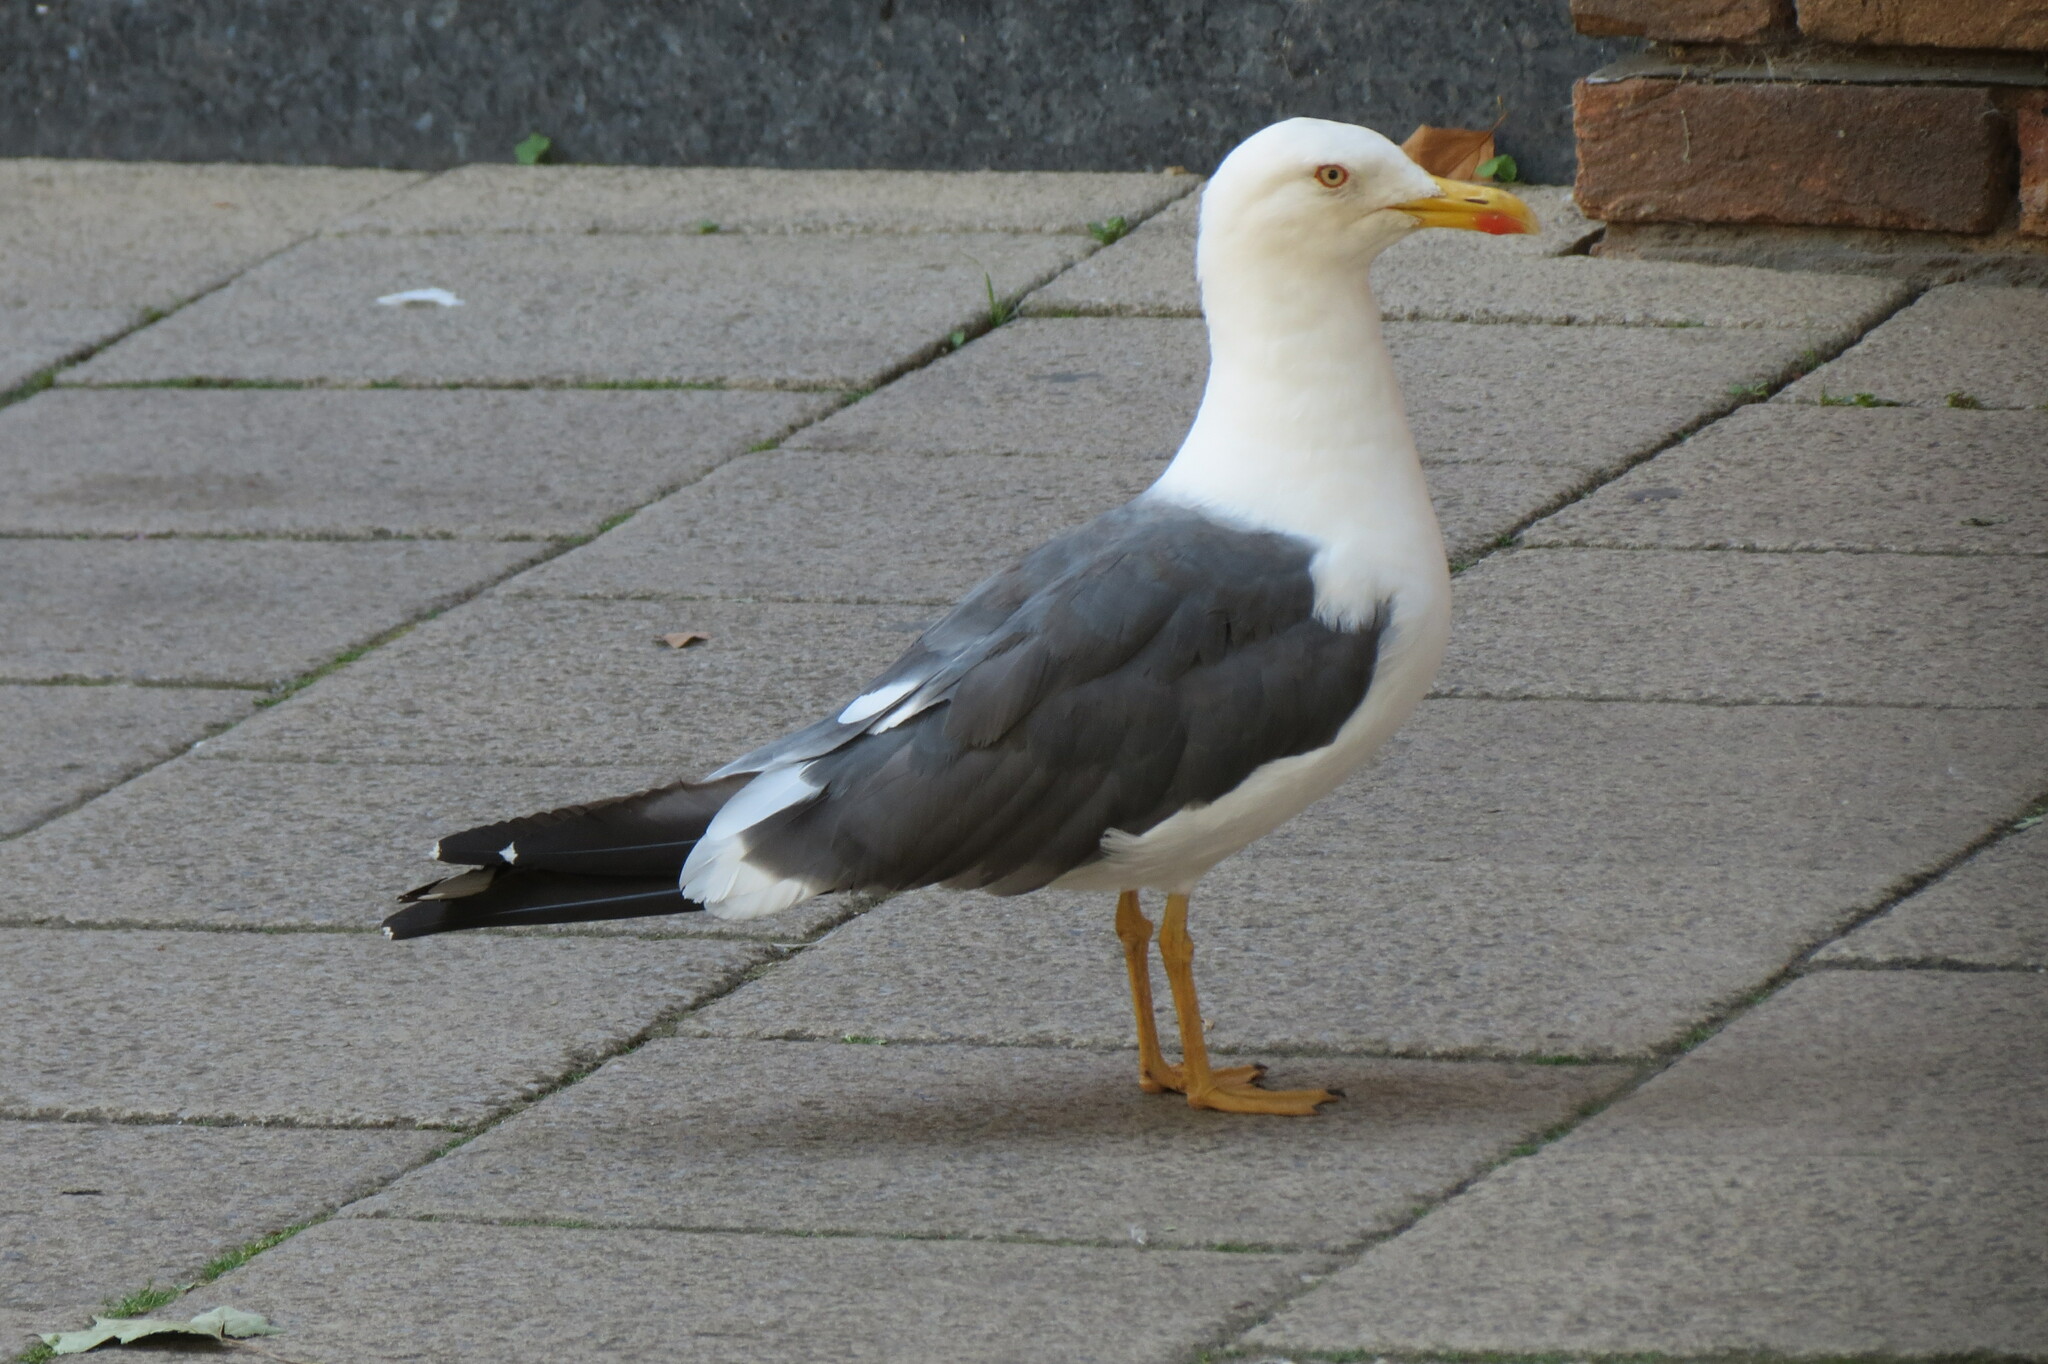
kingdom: Animalia
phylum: Chordata
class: Aves
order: Charadriiformes
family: Laridae
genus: Larus
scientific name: Larus fuscus
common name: Lesser black-backed gull
